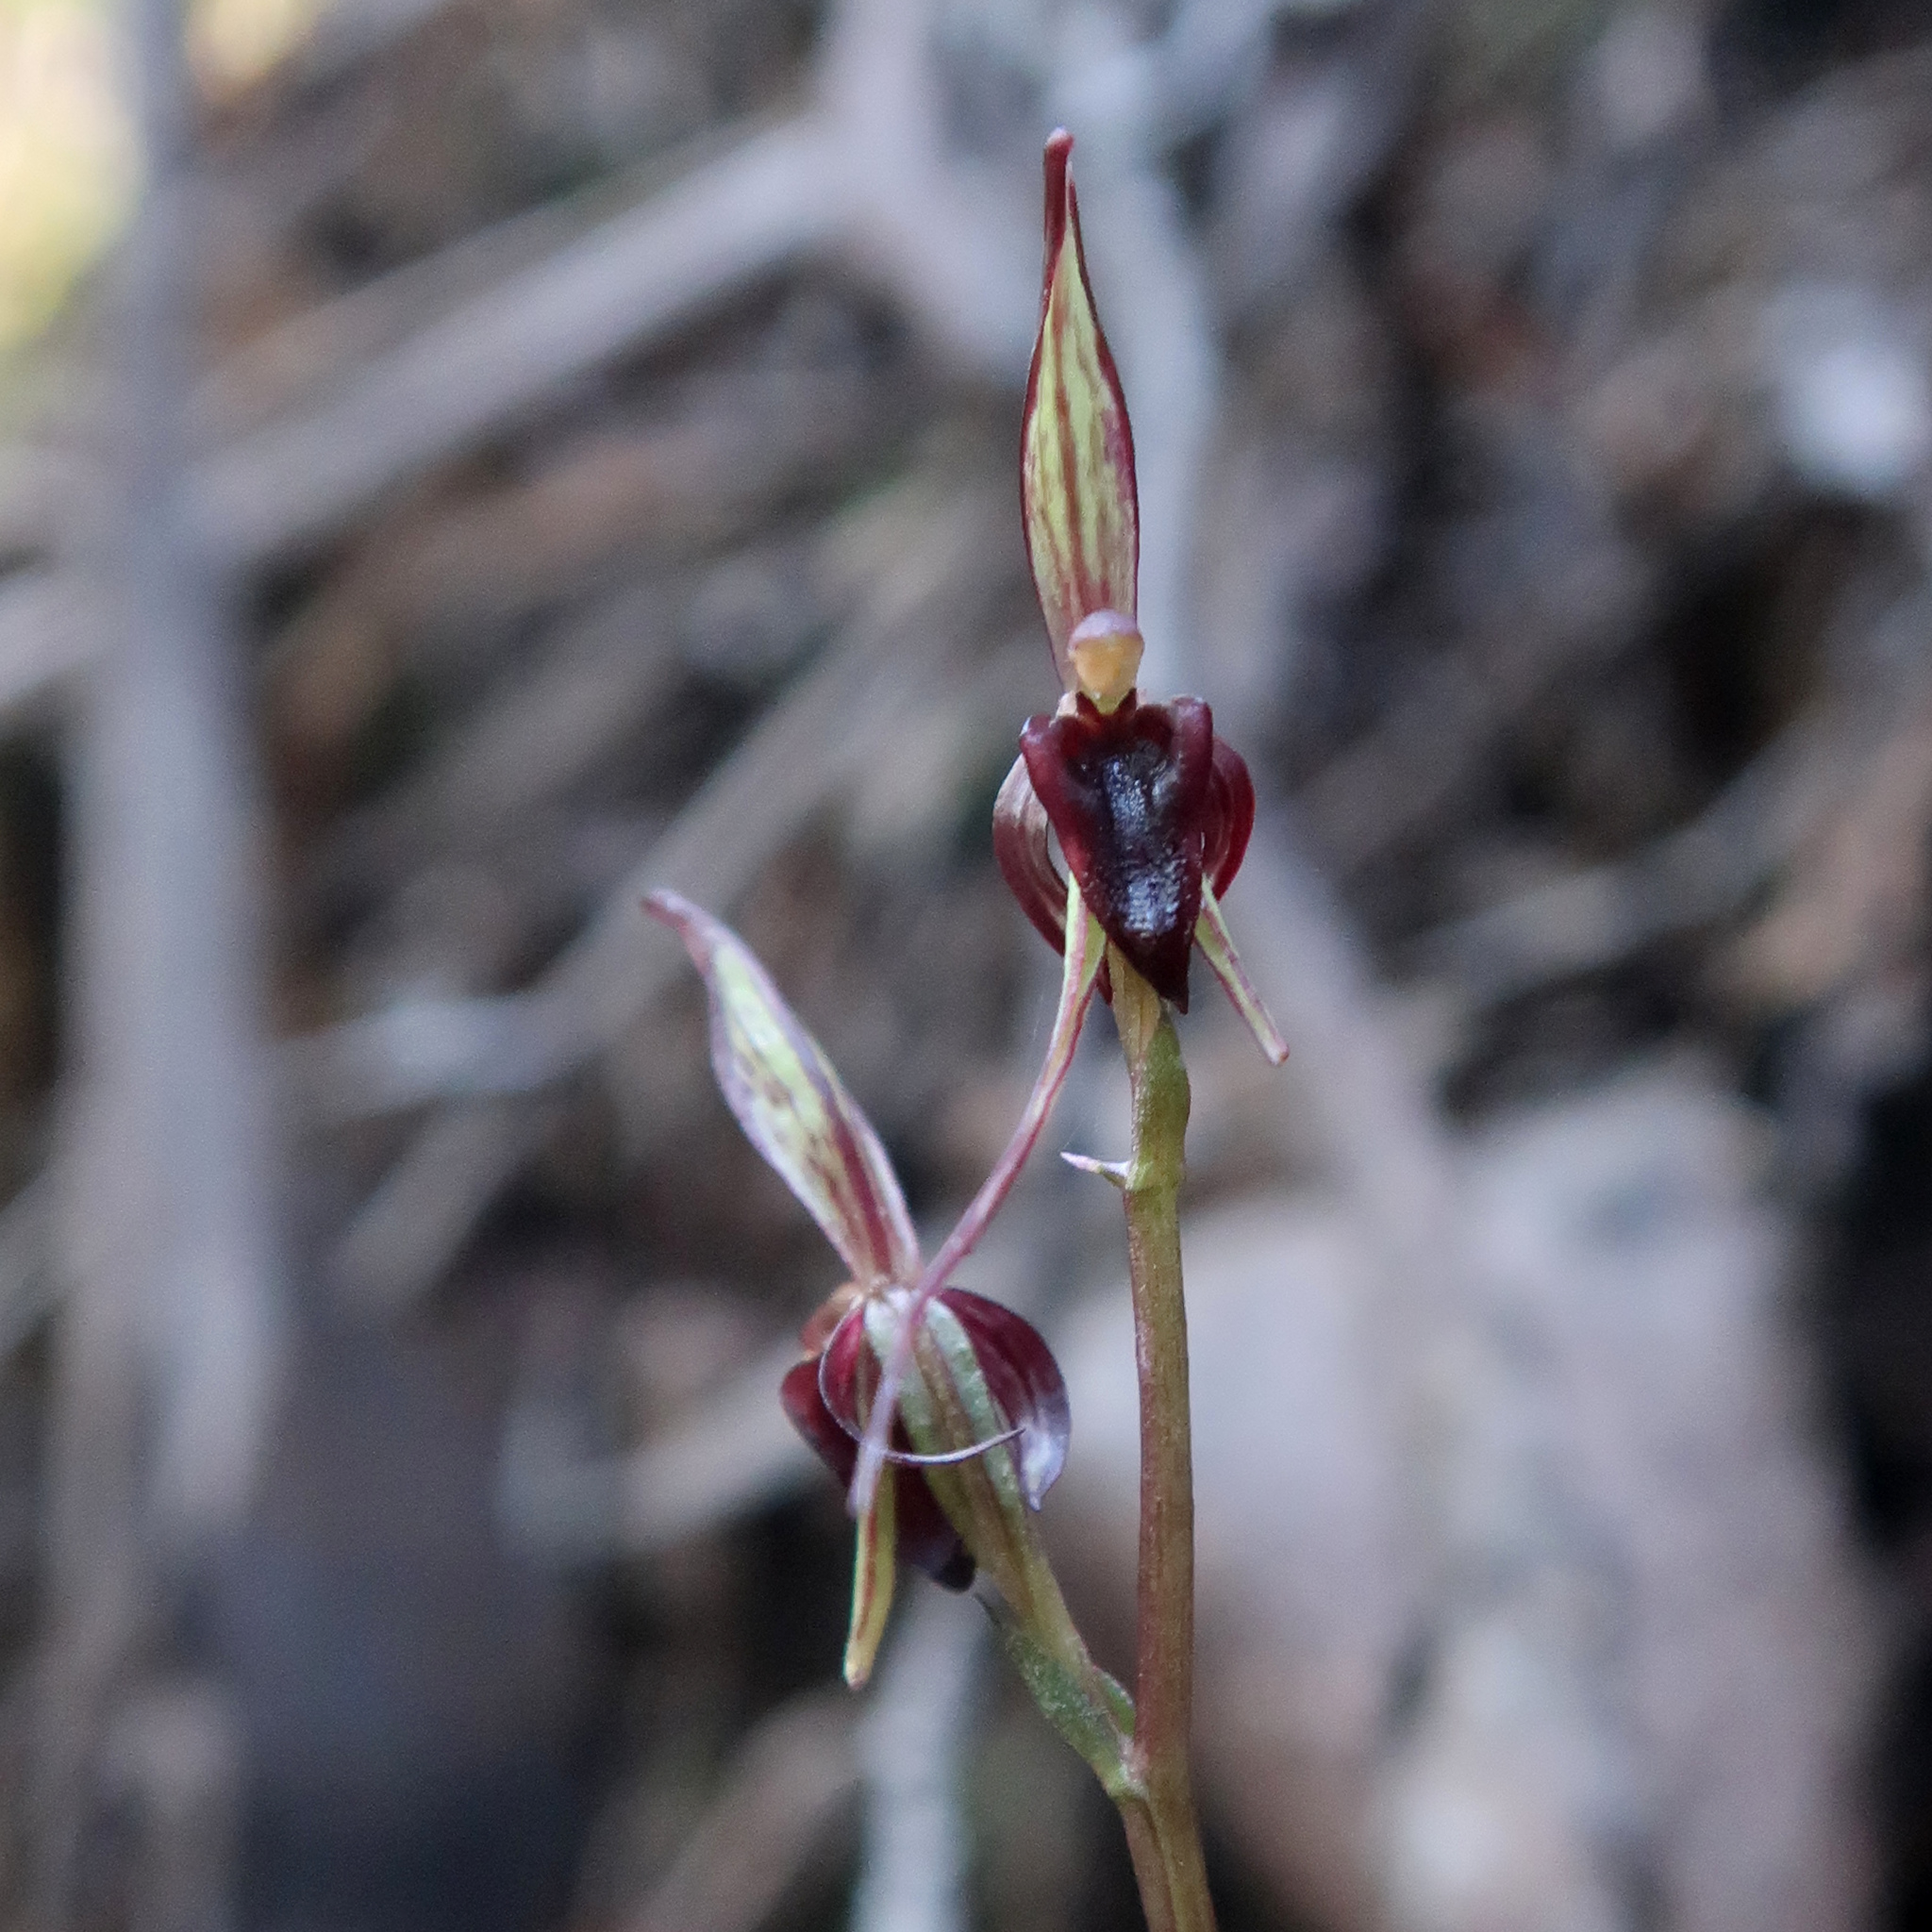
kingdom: Plantae
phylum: Tracheophyta
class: Liliopsida
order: Asparagales
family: Orchidaceae
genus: Acianthus
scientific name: Acianthus caudatus
